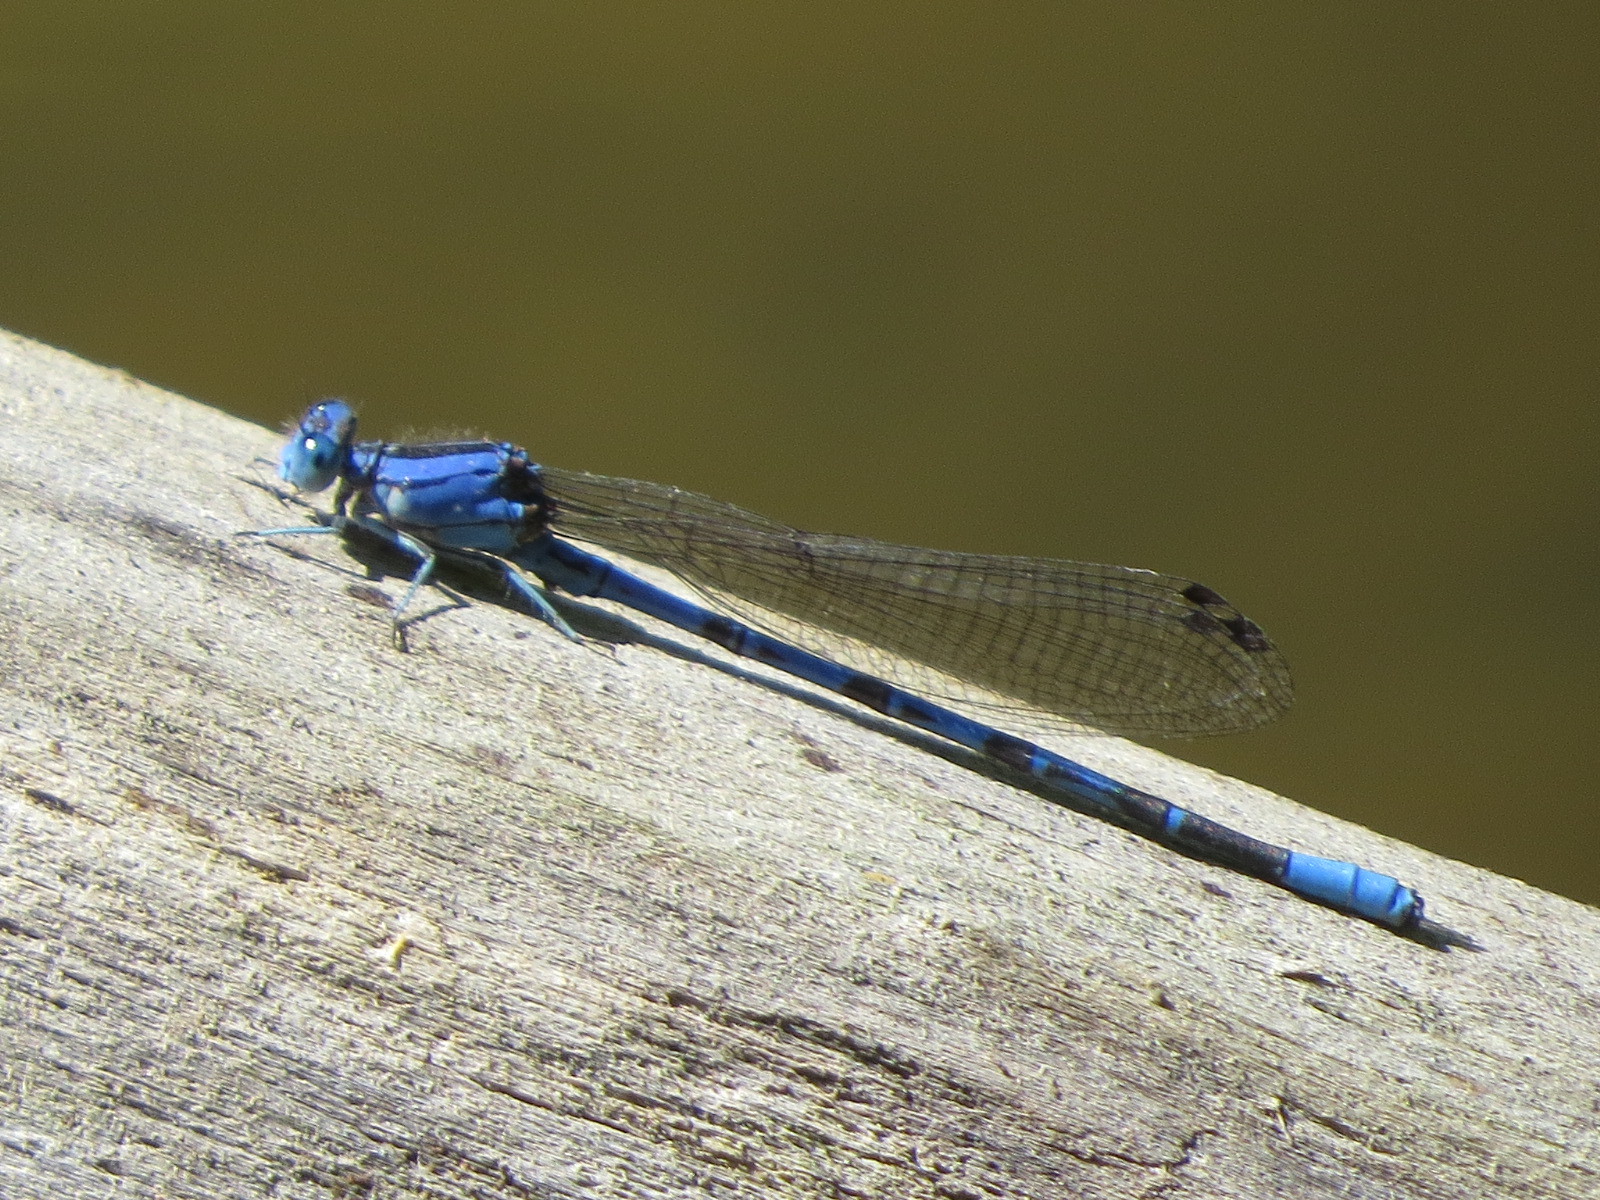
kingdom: Animalia
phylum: Arthropoda
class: Insecta
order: Odonata
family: Coenagrionidae
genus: Argia
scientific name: Argia vivida
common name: Vivid dancer
